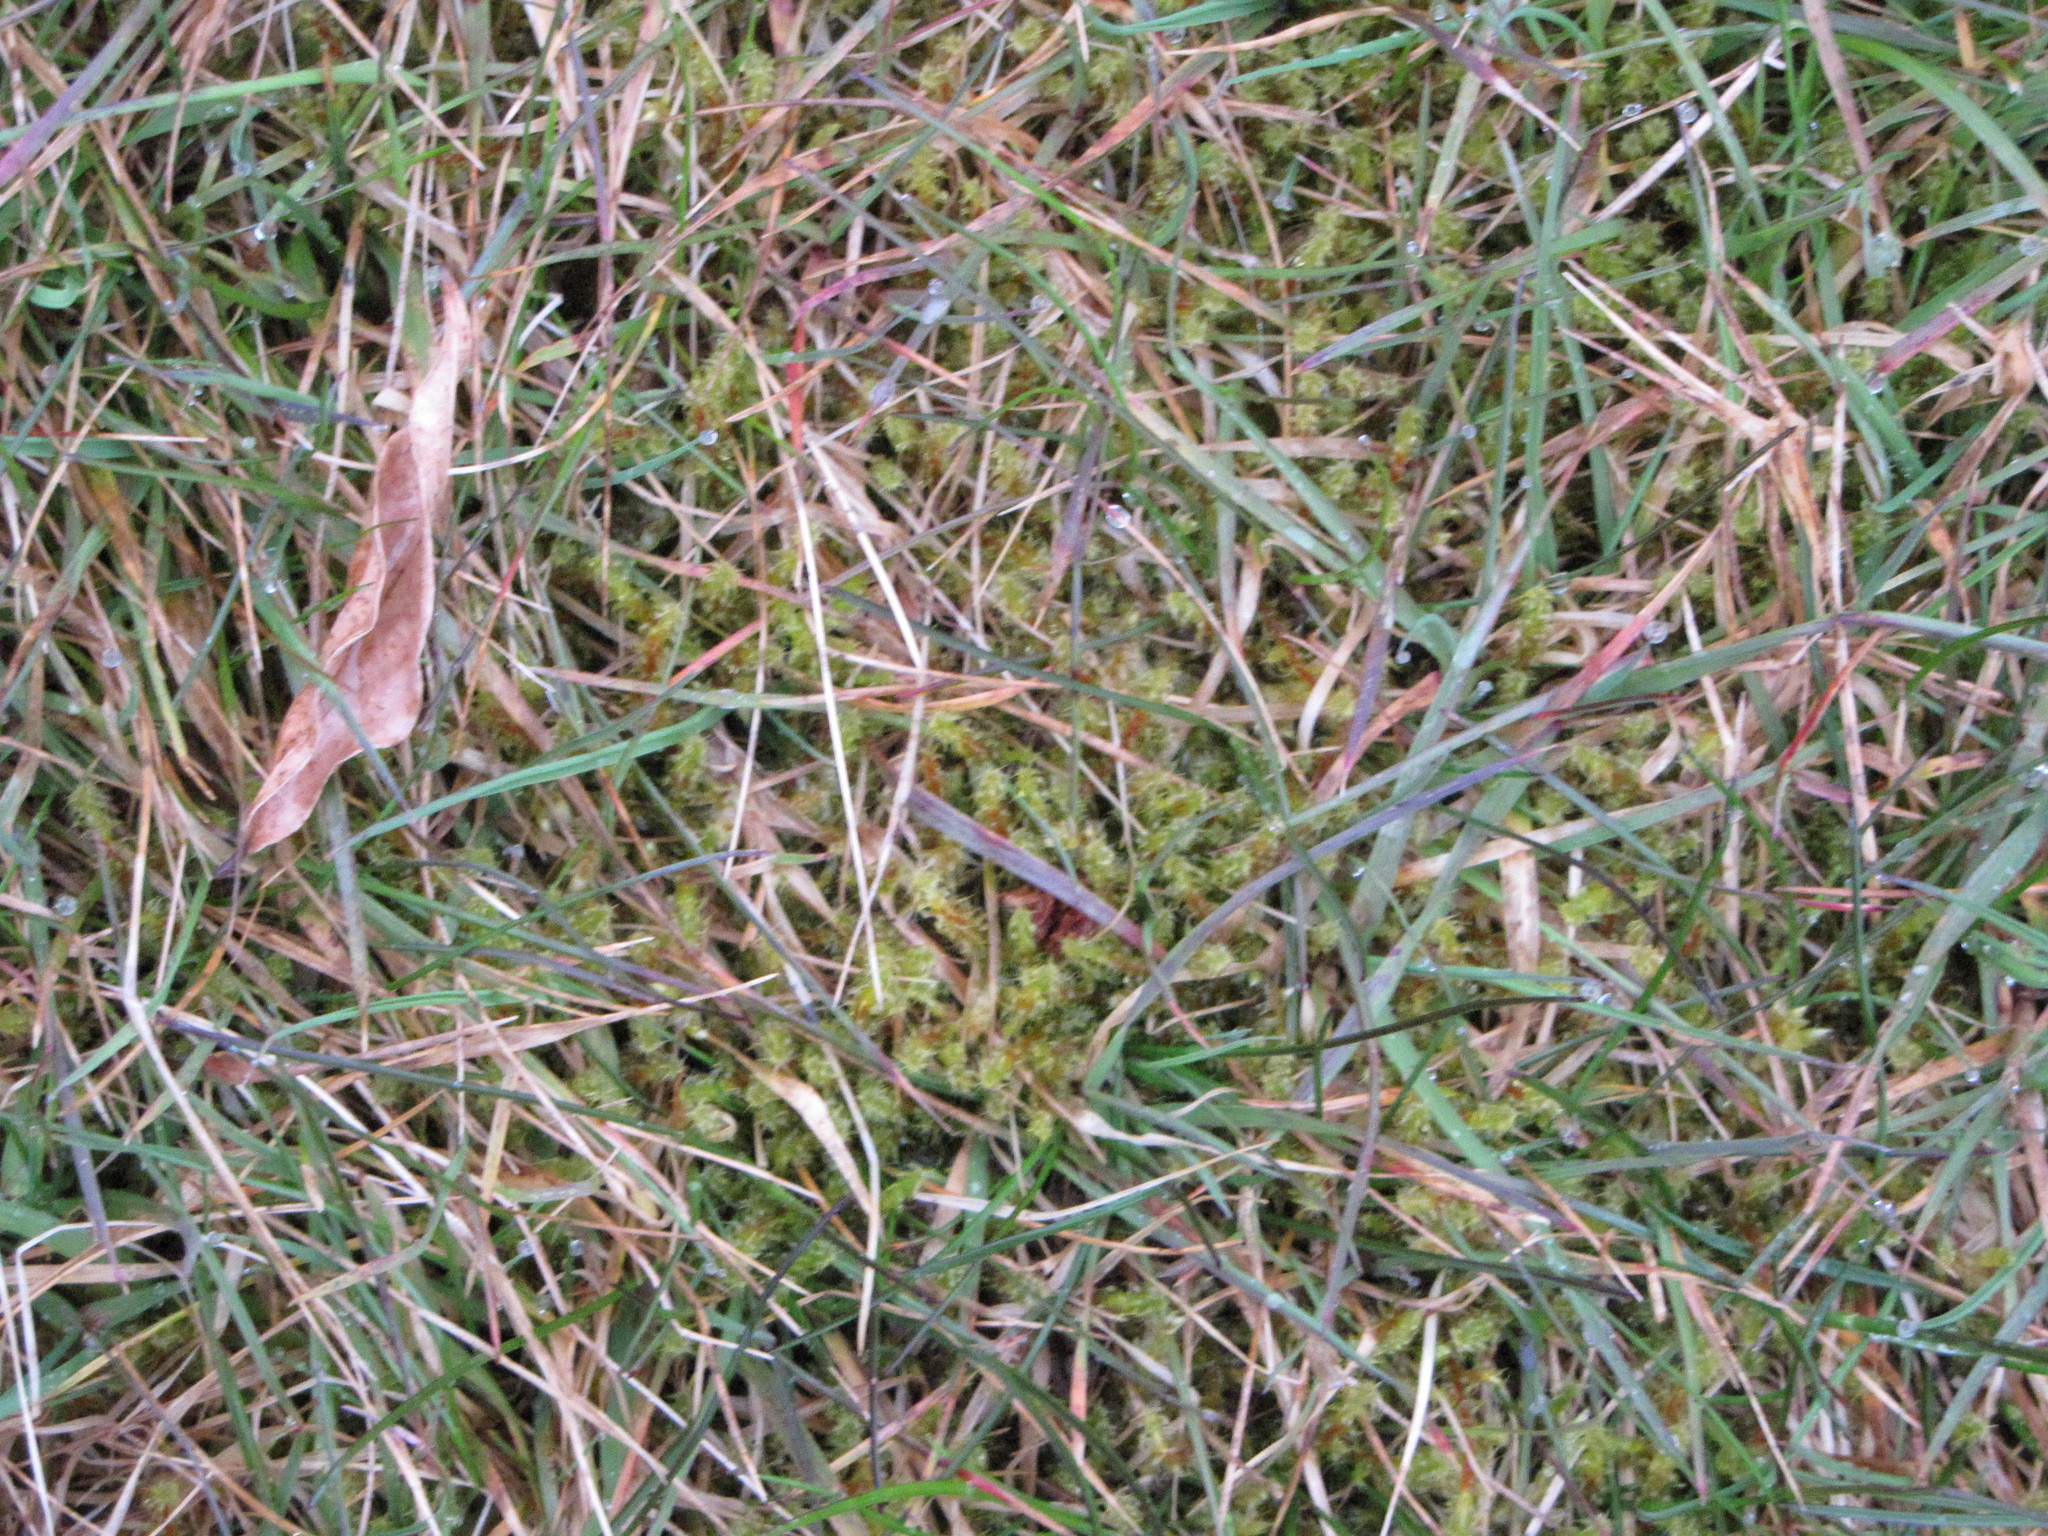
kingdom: Plantae
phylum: Bryophyta
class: Bryopsida
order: Hypnales
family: Hylocomiaceae
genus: Rhytidiadelphus
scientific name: Rhytidiadelphus squarrosus
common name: Springy turf-moss
